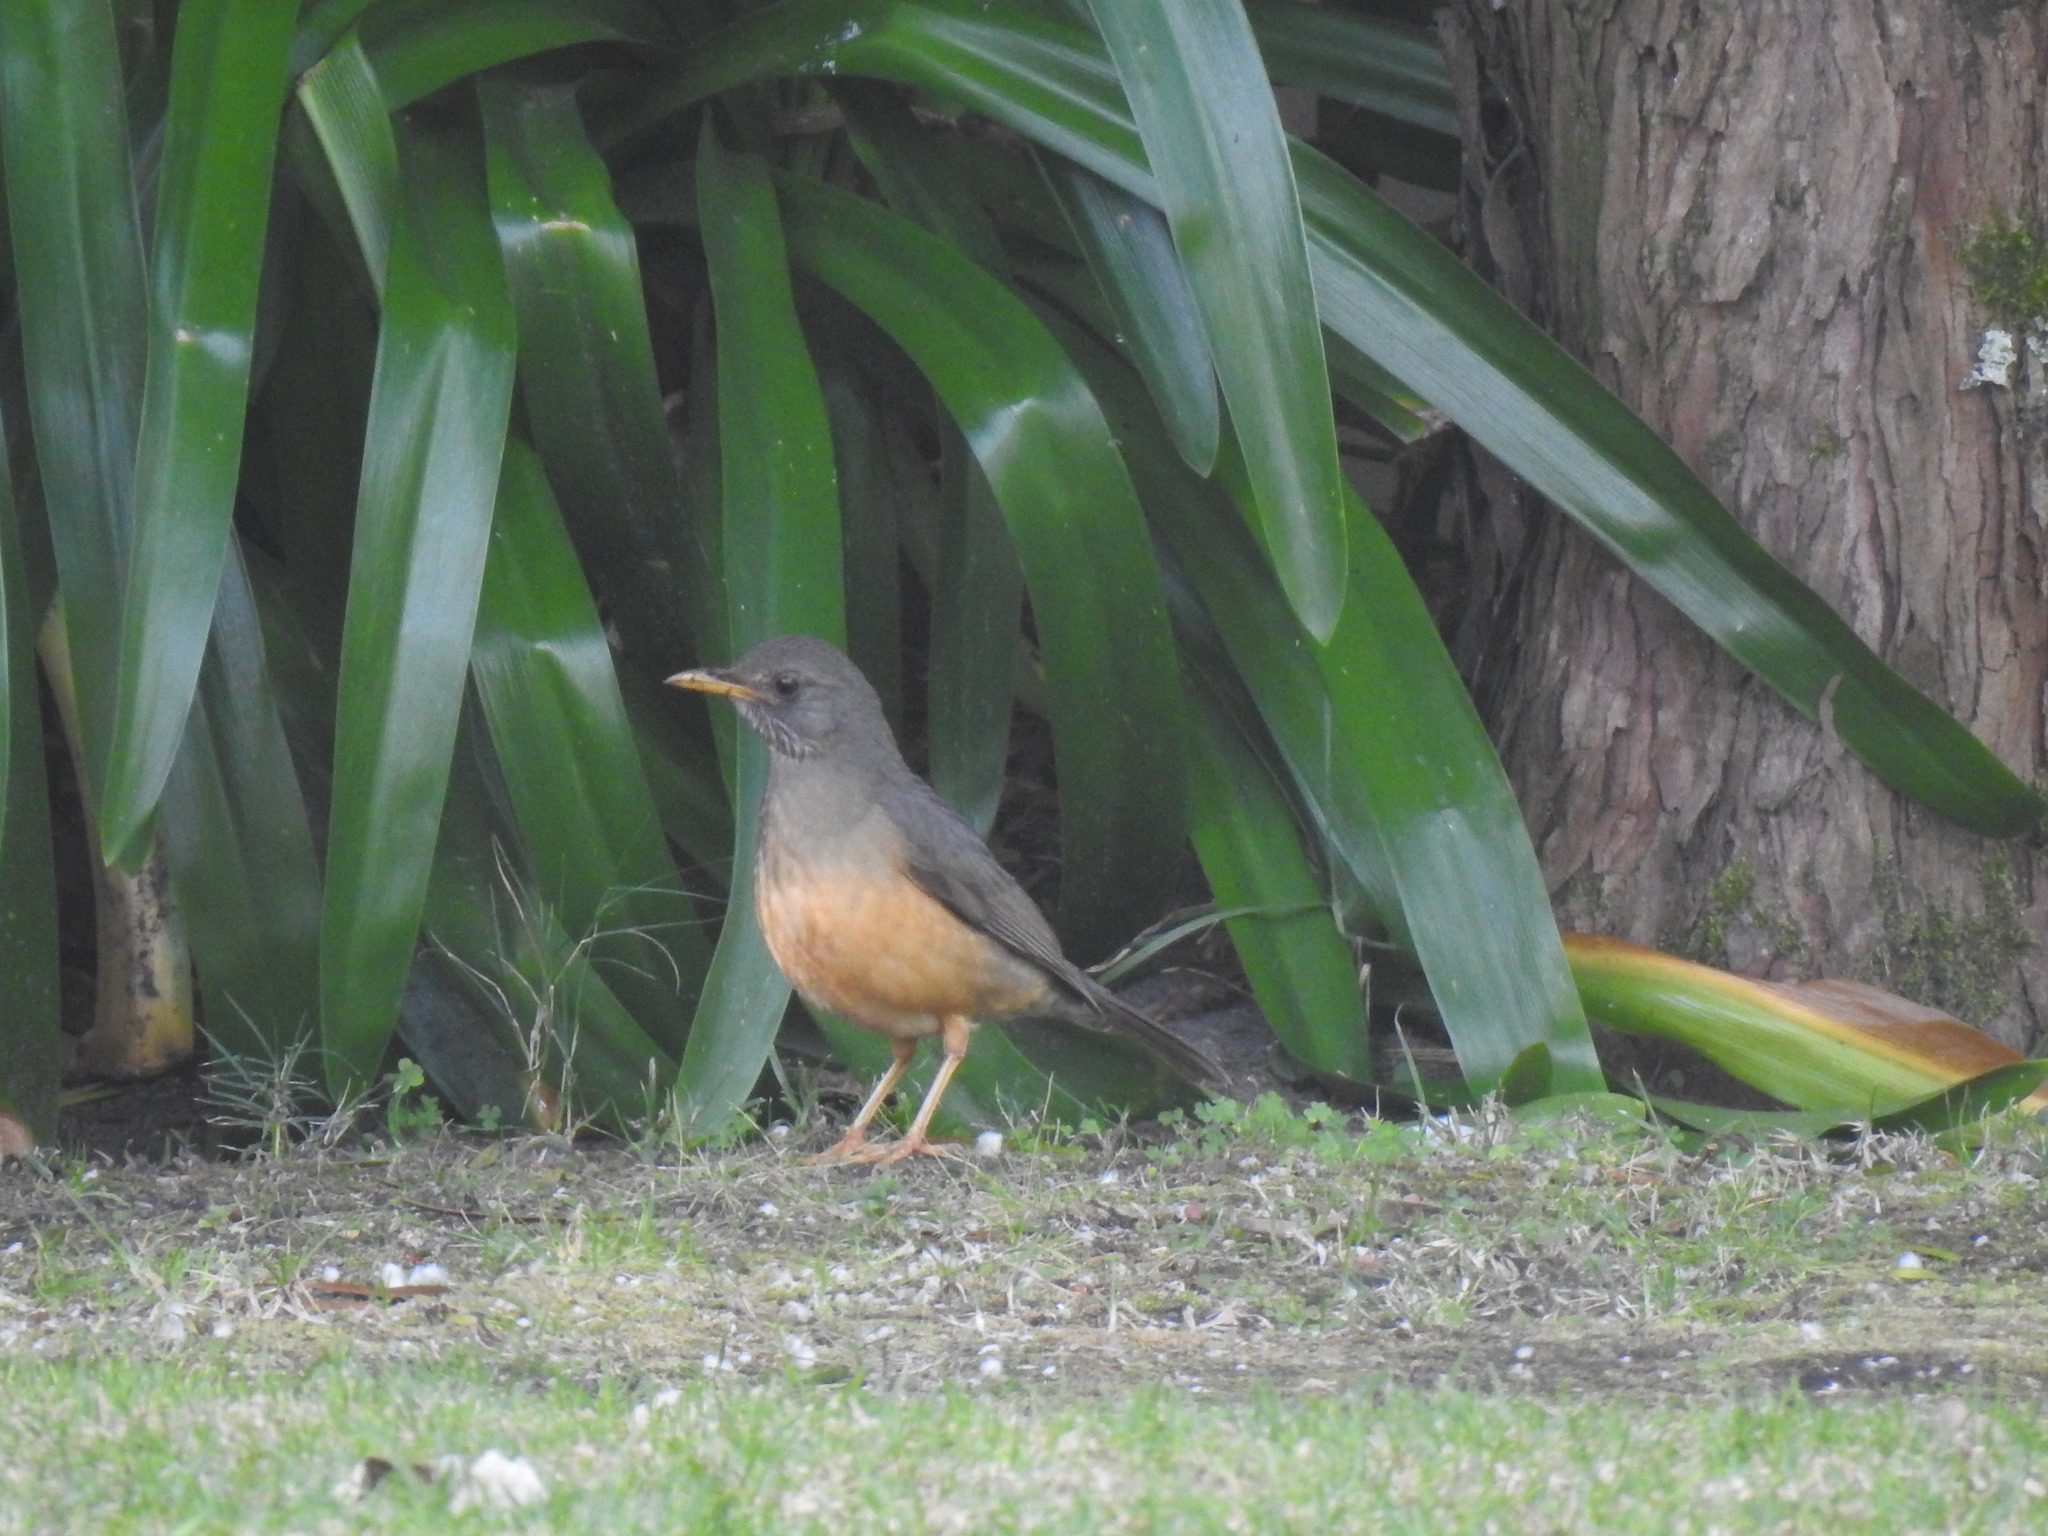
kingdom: Animalia
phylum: Chordata
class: Aves
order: Passeriformes
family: Turdidae
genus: Turdus
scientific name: Turdus olivaceus
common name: Olive thrush
